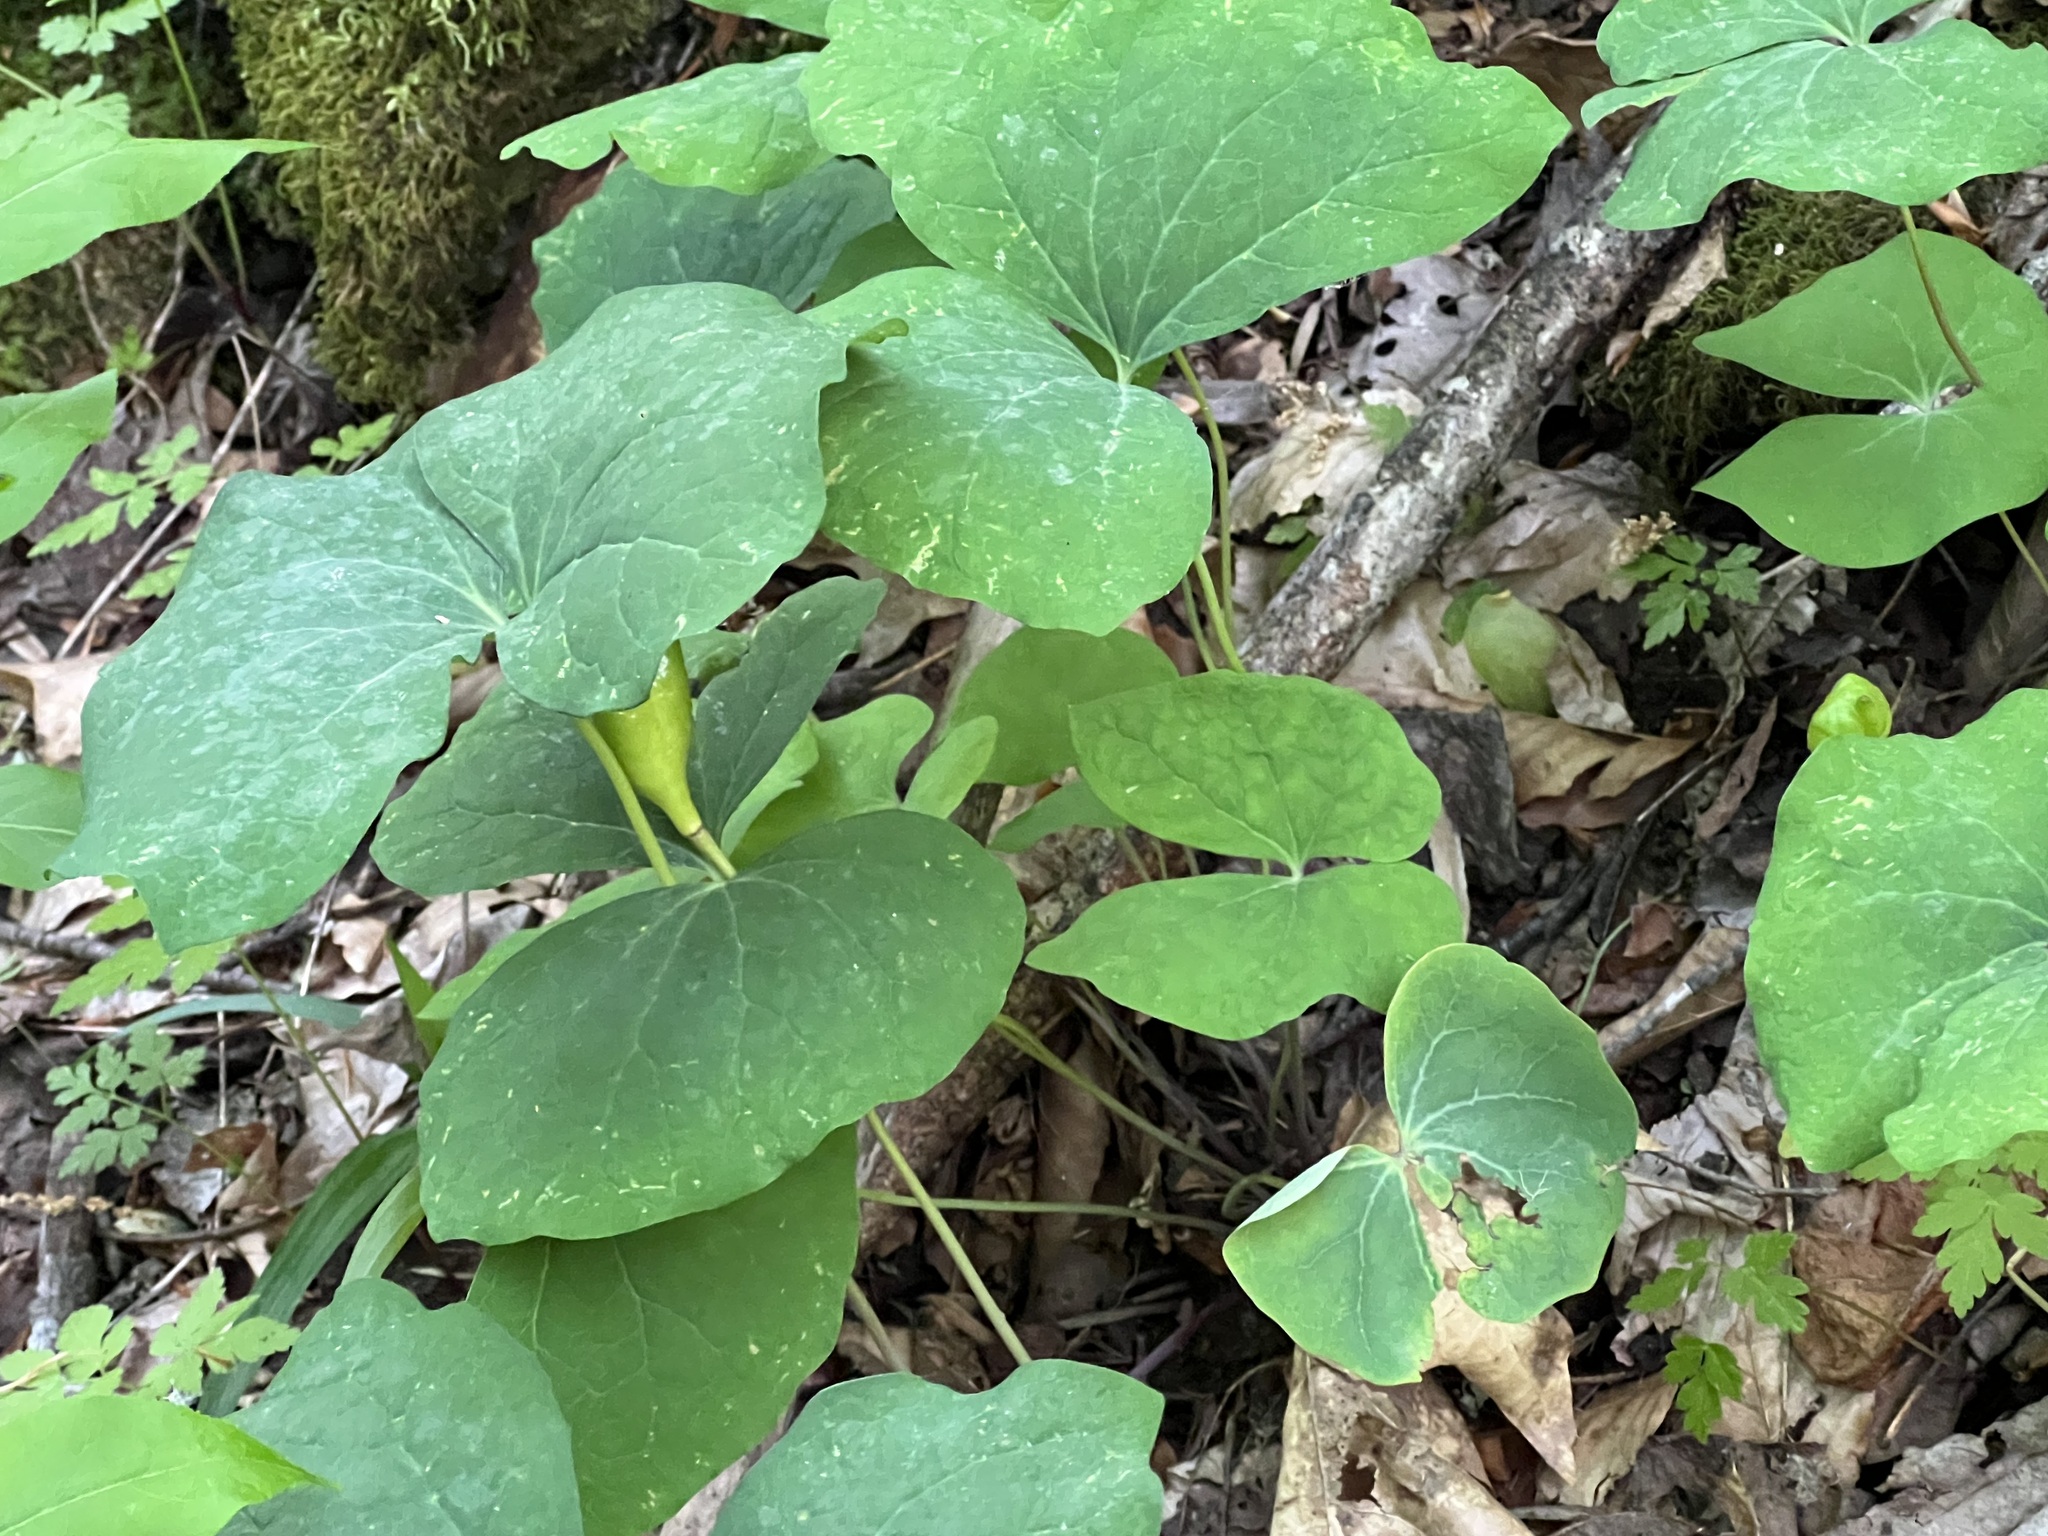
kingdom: Plantae
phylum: Tracheophyta
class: Magnoliopsida
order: Ranunculales
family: Berberidaceae
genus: Jeffersonia
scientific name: Jeffersonia diphylla
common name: Rheumatism-root
